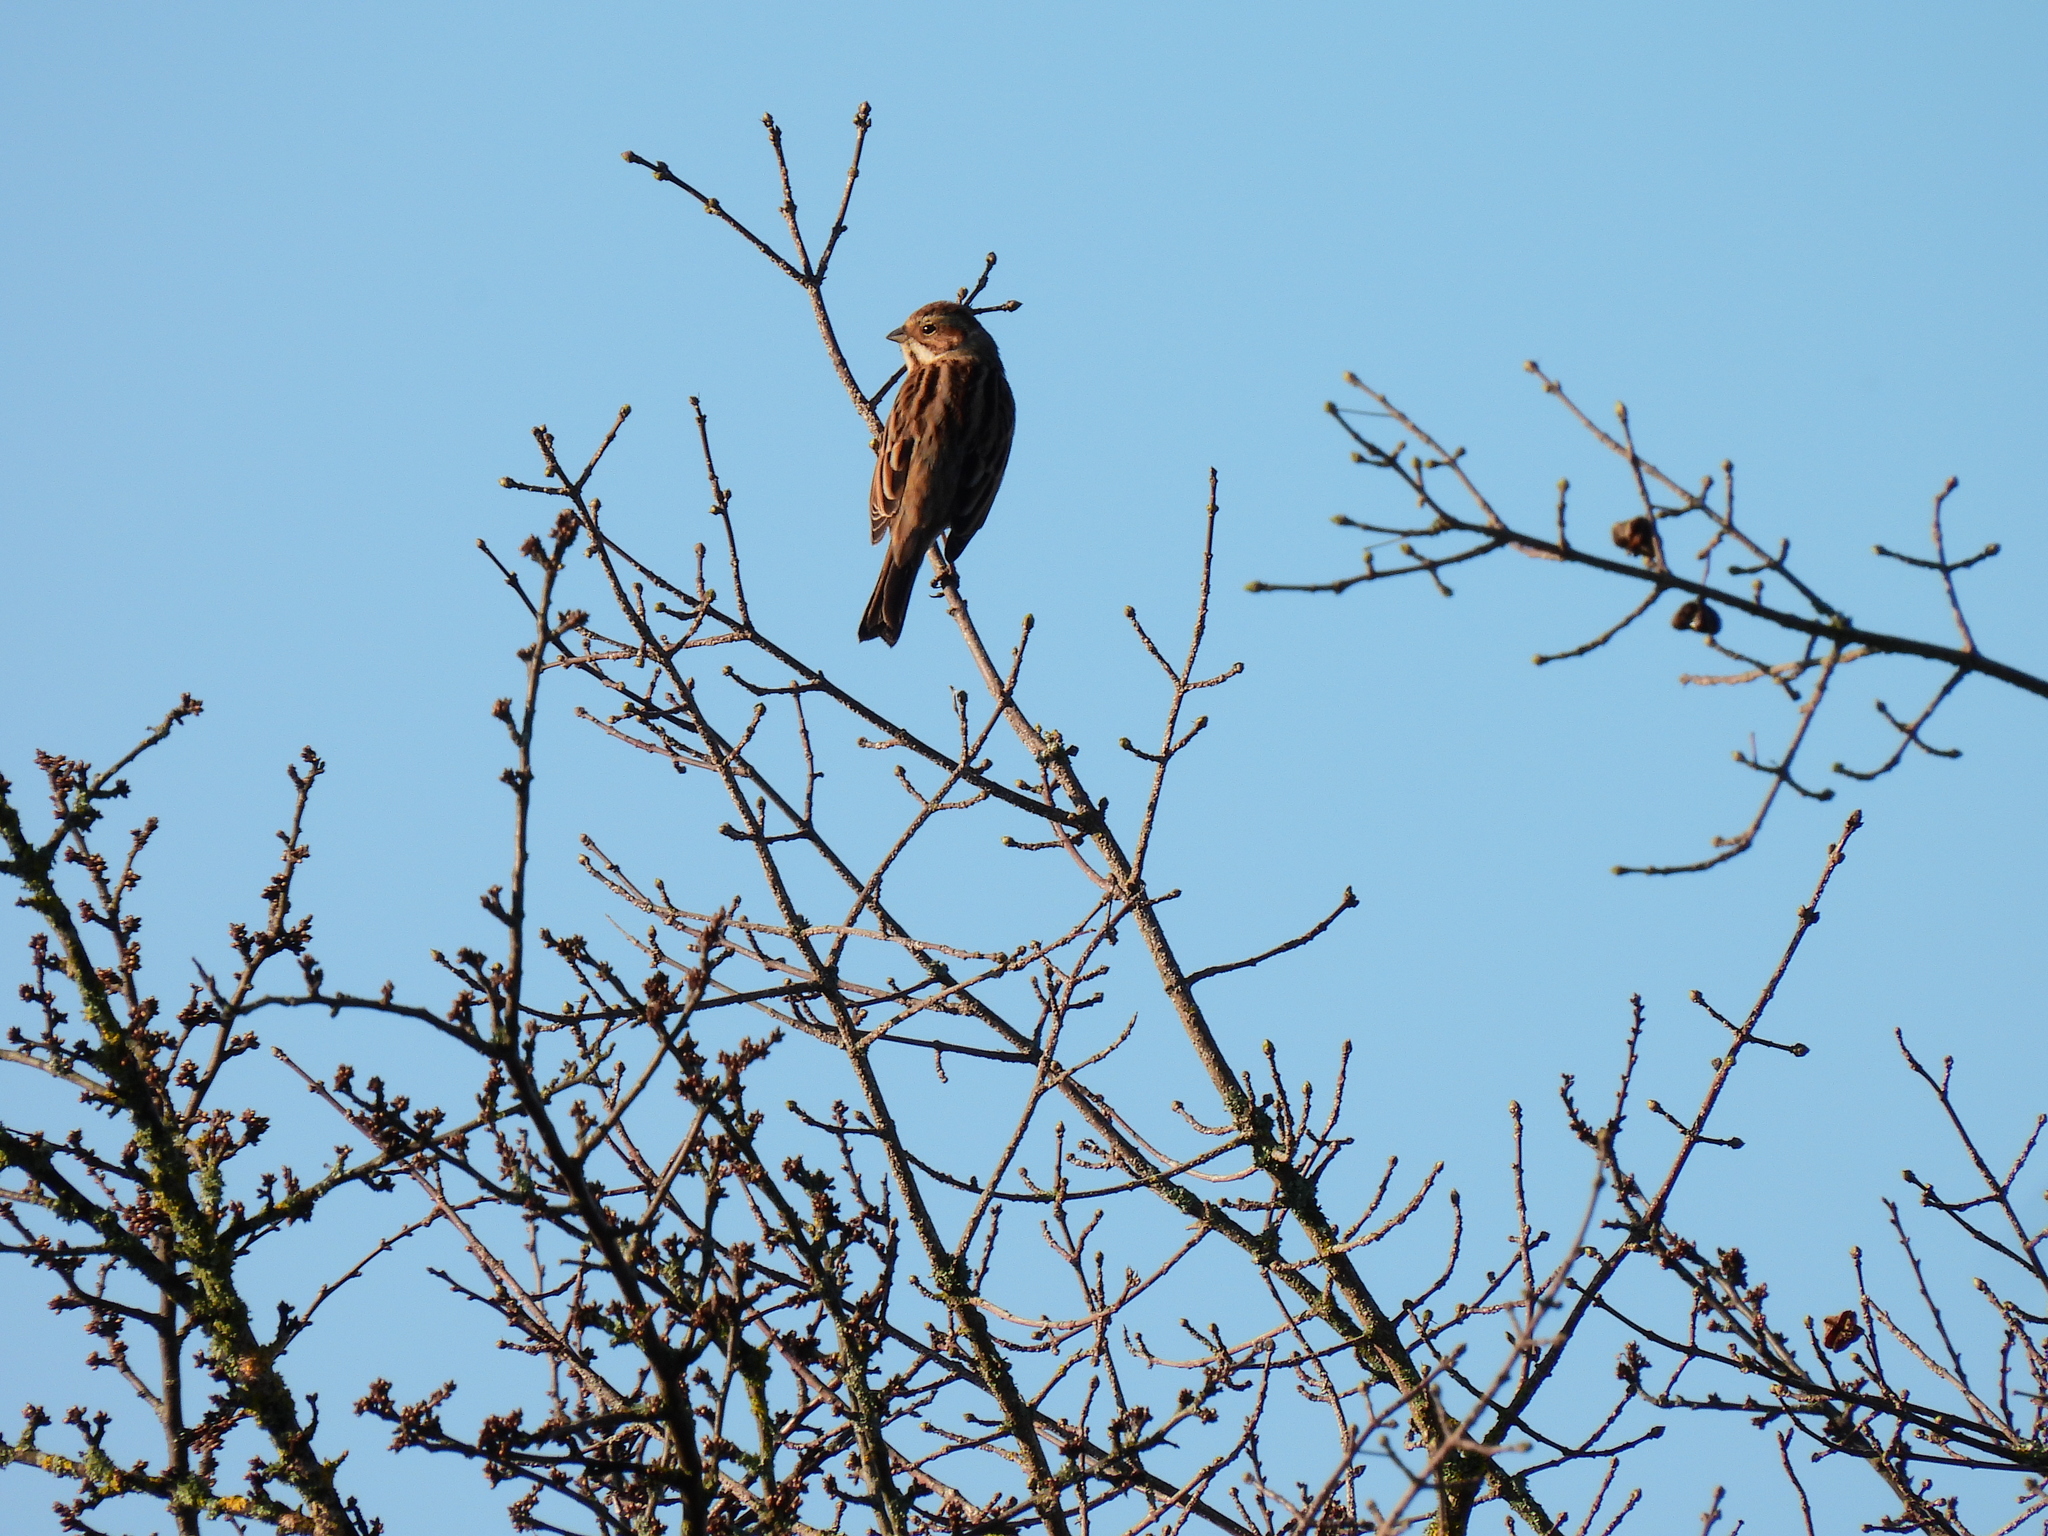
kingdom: Animalia
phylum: Chordata
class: Aves
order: Passeriformes
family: Emberizidae
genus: Emberiza
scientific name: Emberiza schoeniclus
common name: Reed bunting
